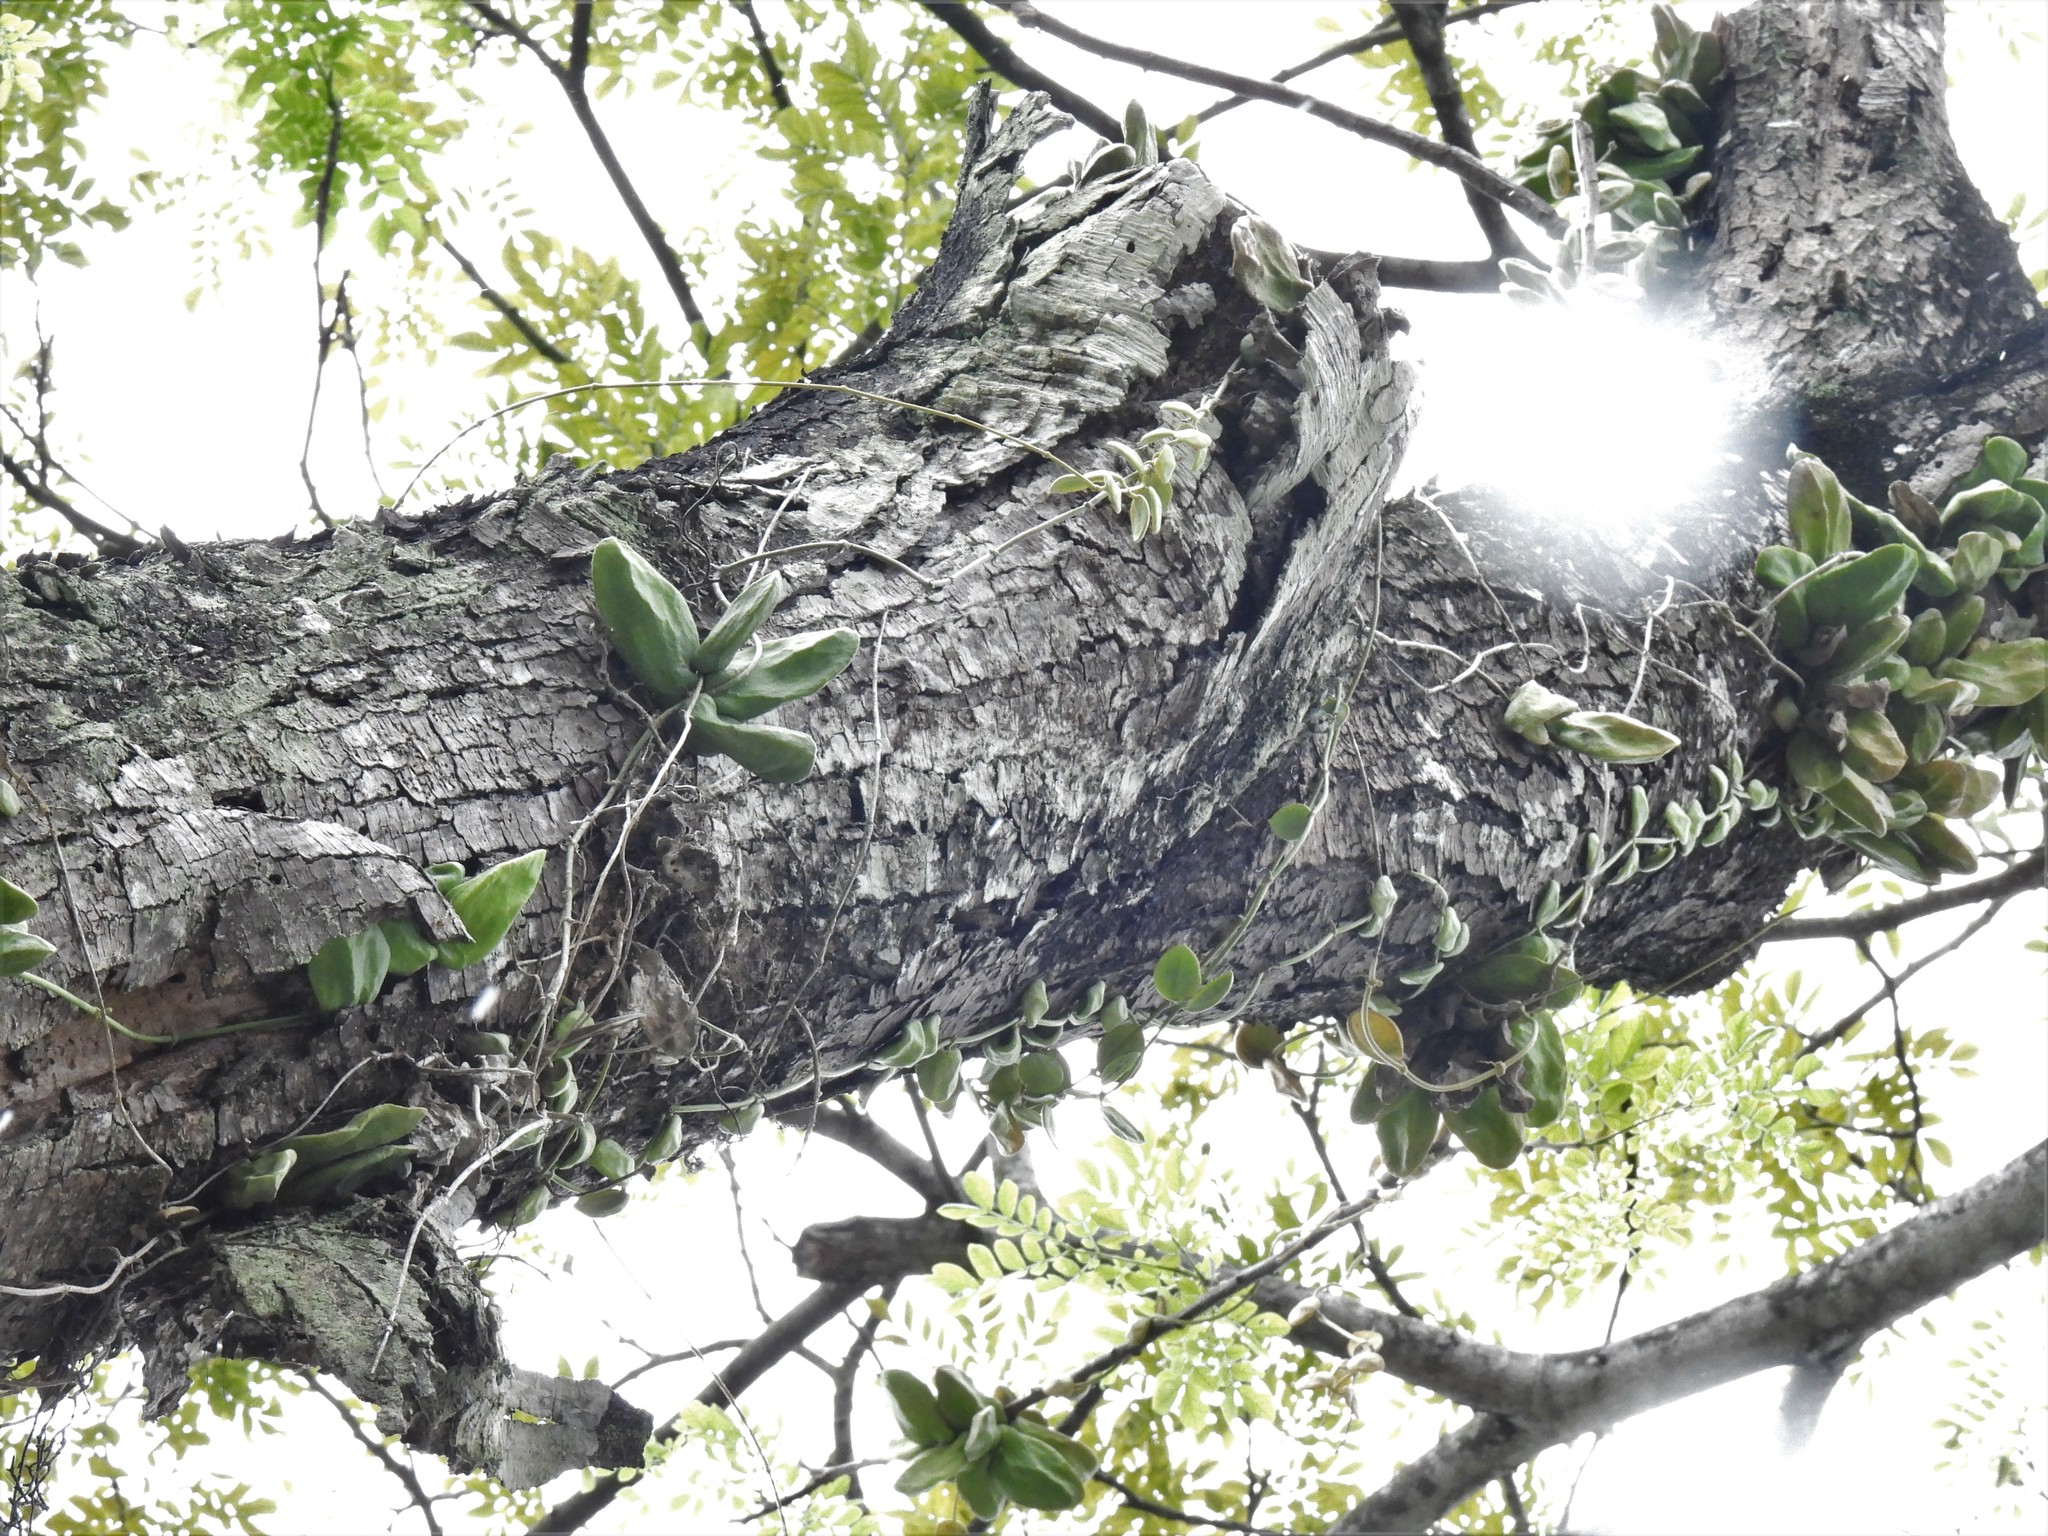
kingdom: Plantae
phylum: Tracheophyta
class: Magnoliopsida
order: Gentianales
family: Apocynaceae
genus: Dischidia
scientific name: Dischidia major
